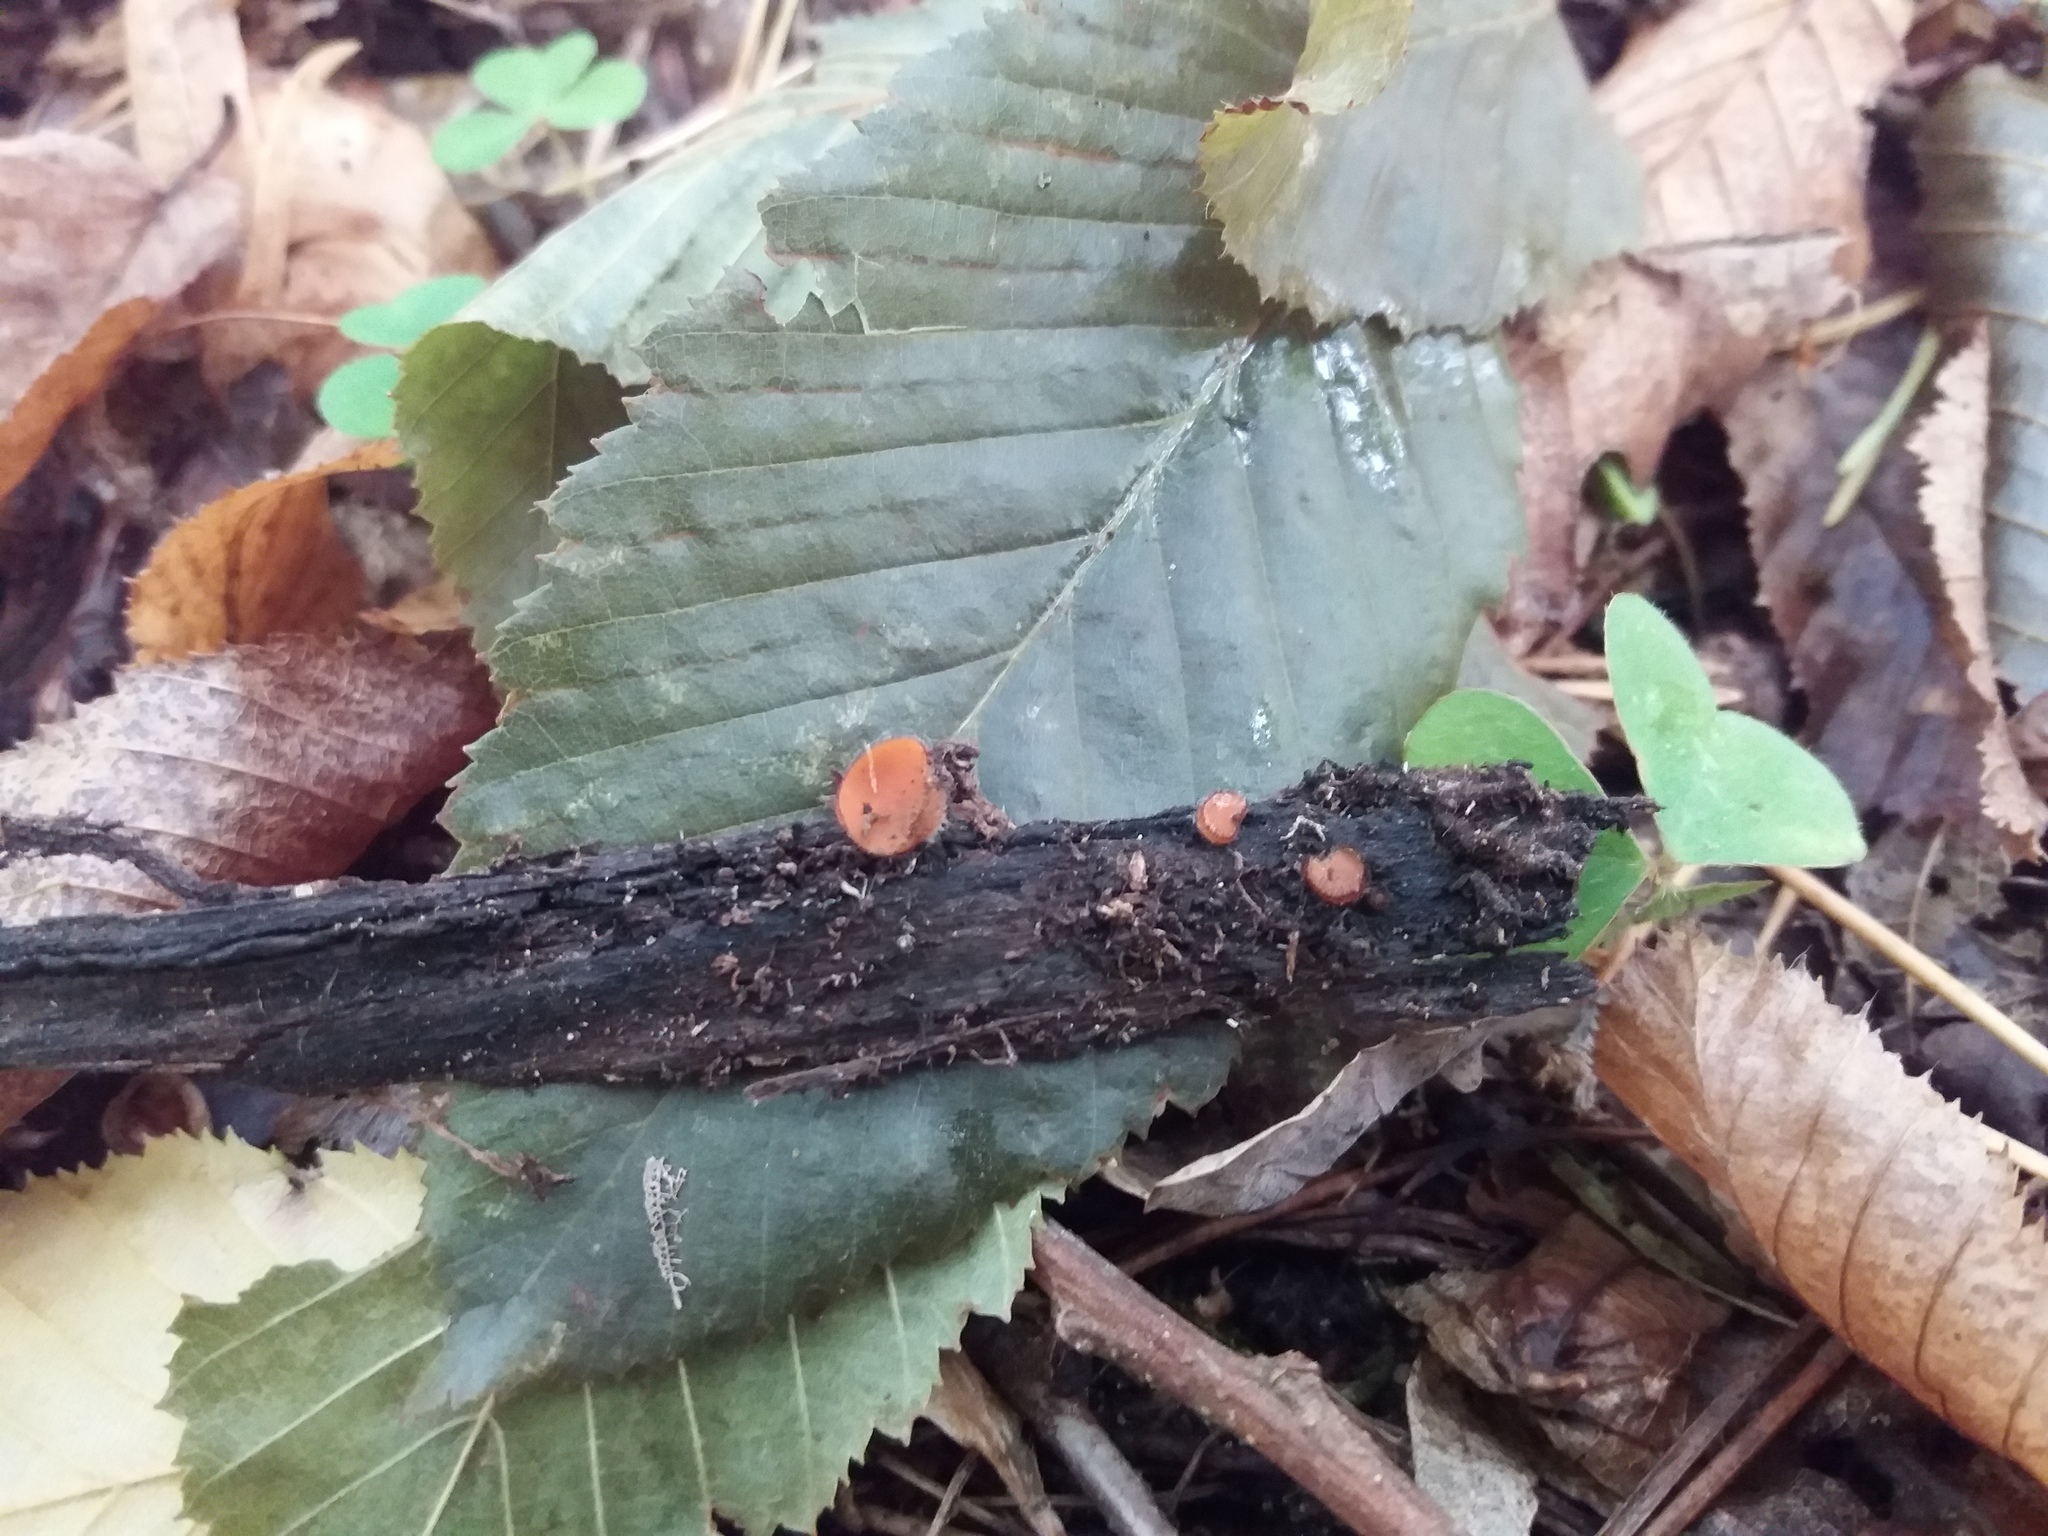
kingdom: Fungi
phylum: Ascomycota
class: Pezizomycetes
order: Pezizales
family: Pyronemataceae
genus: Scutellinia
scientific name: Scutellinia
